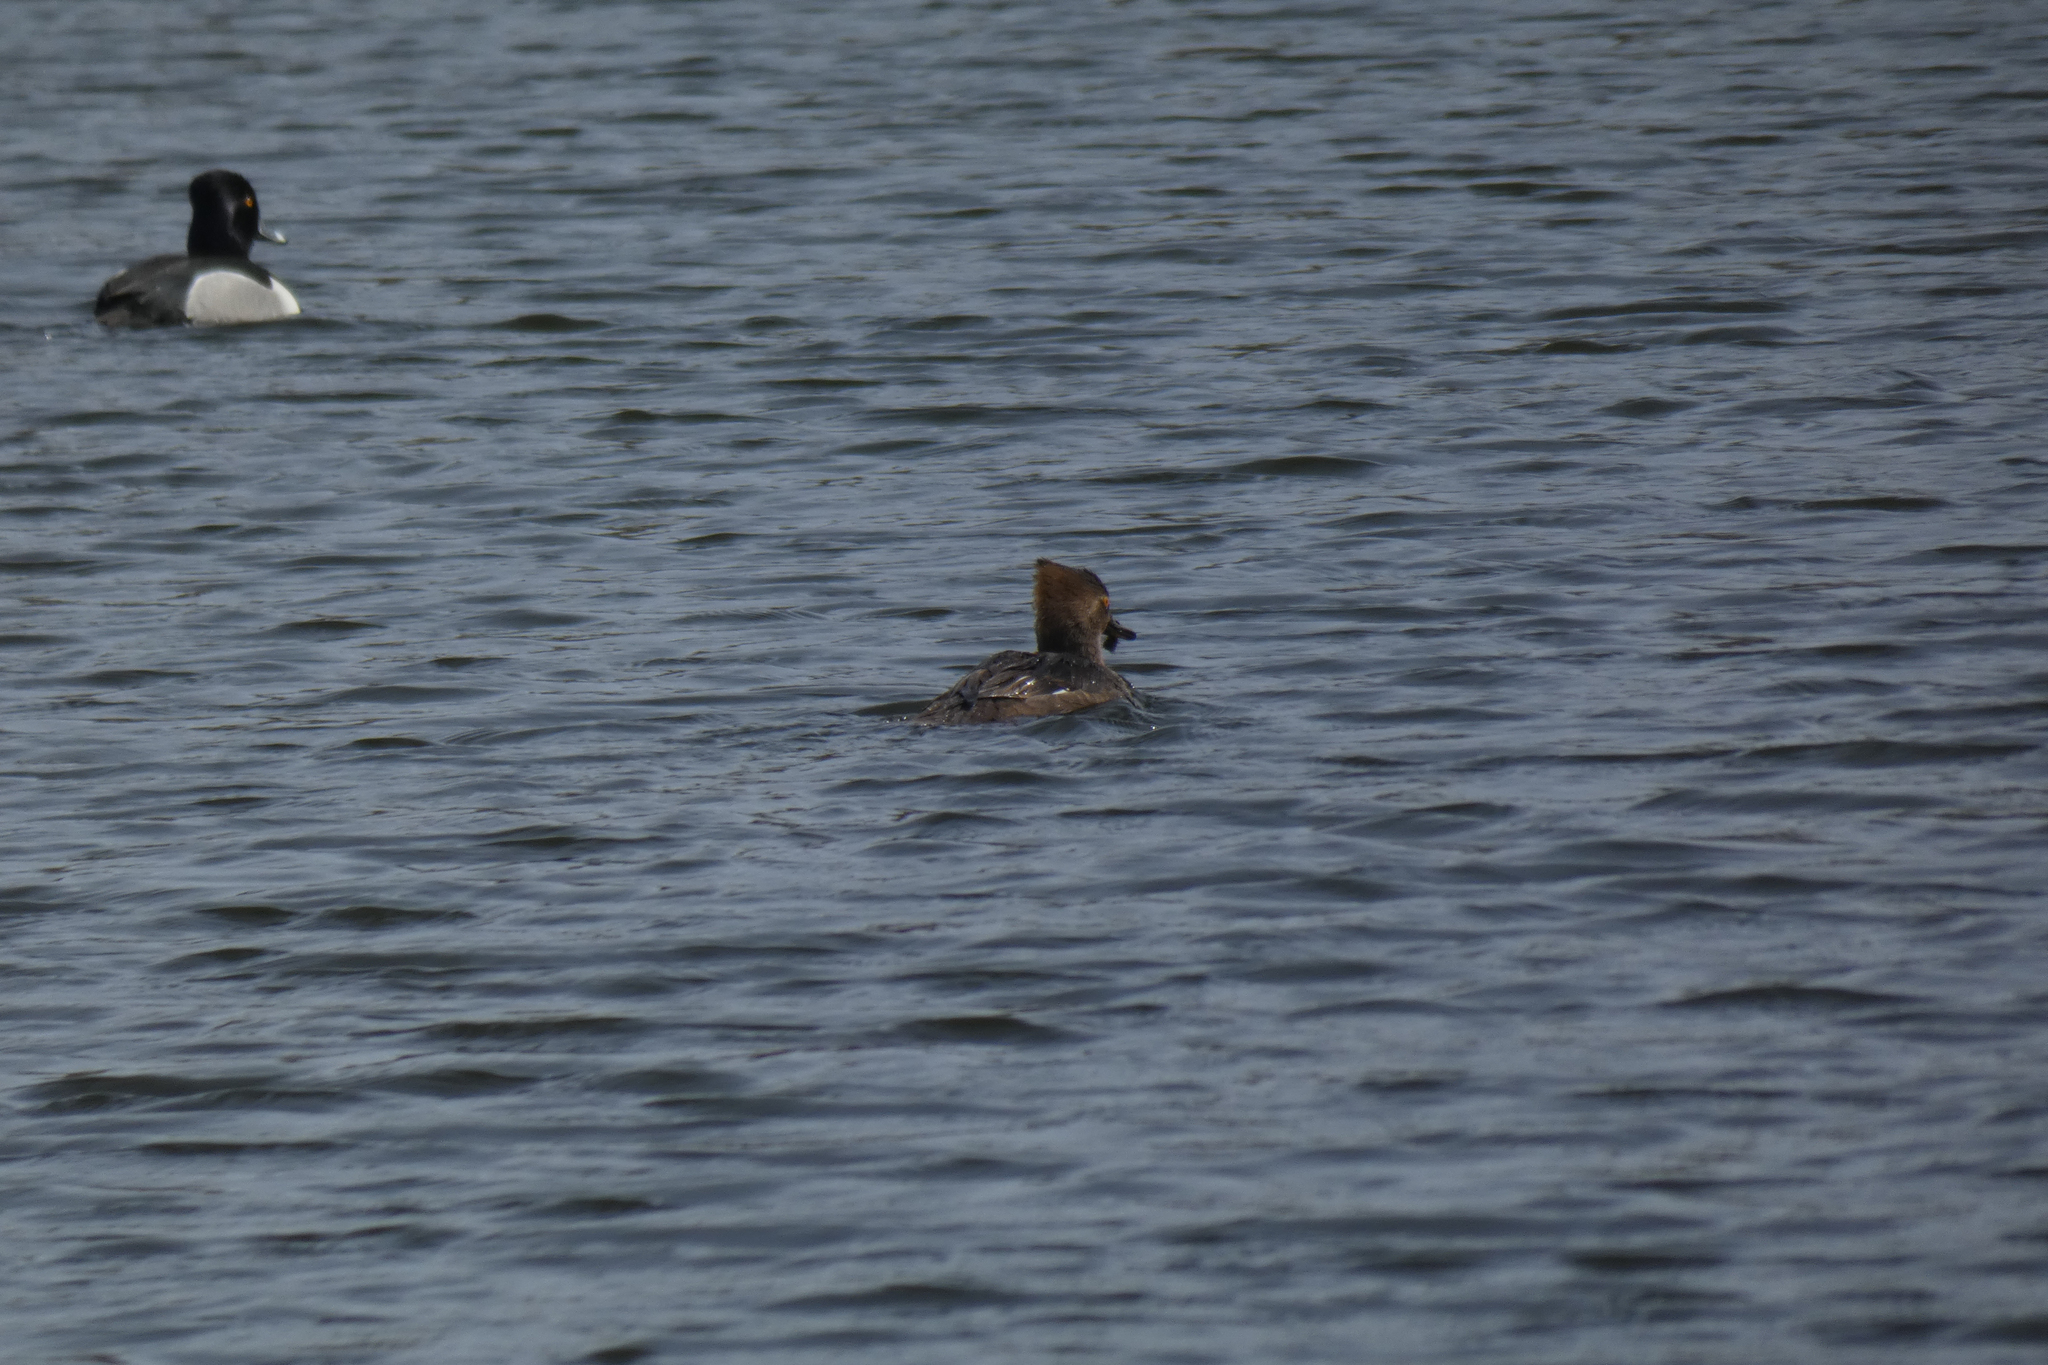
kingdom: Animalia
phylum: Chordata
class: Aves
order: Anseriformes
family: Anatidae
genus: Lophodytes
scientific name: Lophodytes cucullatus
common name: Hooded merganser
